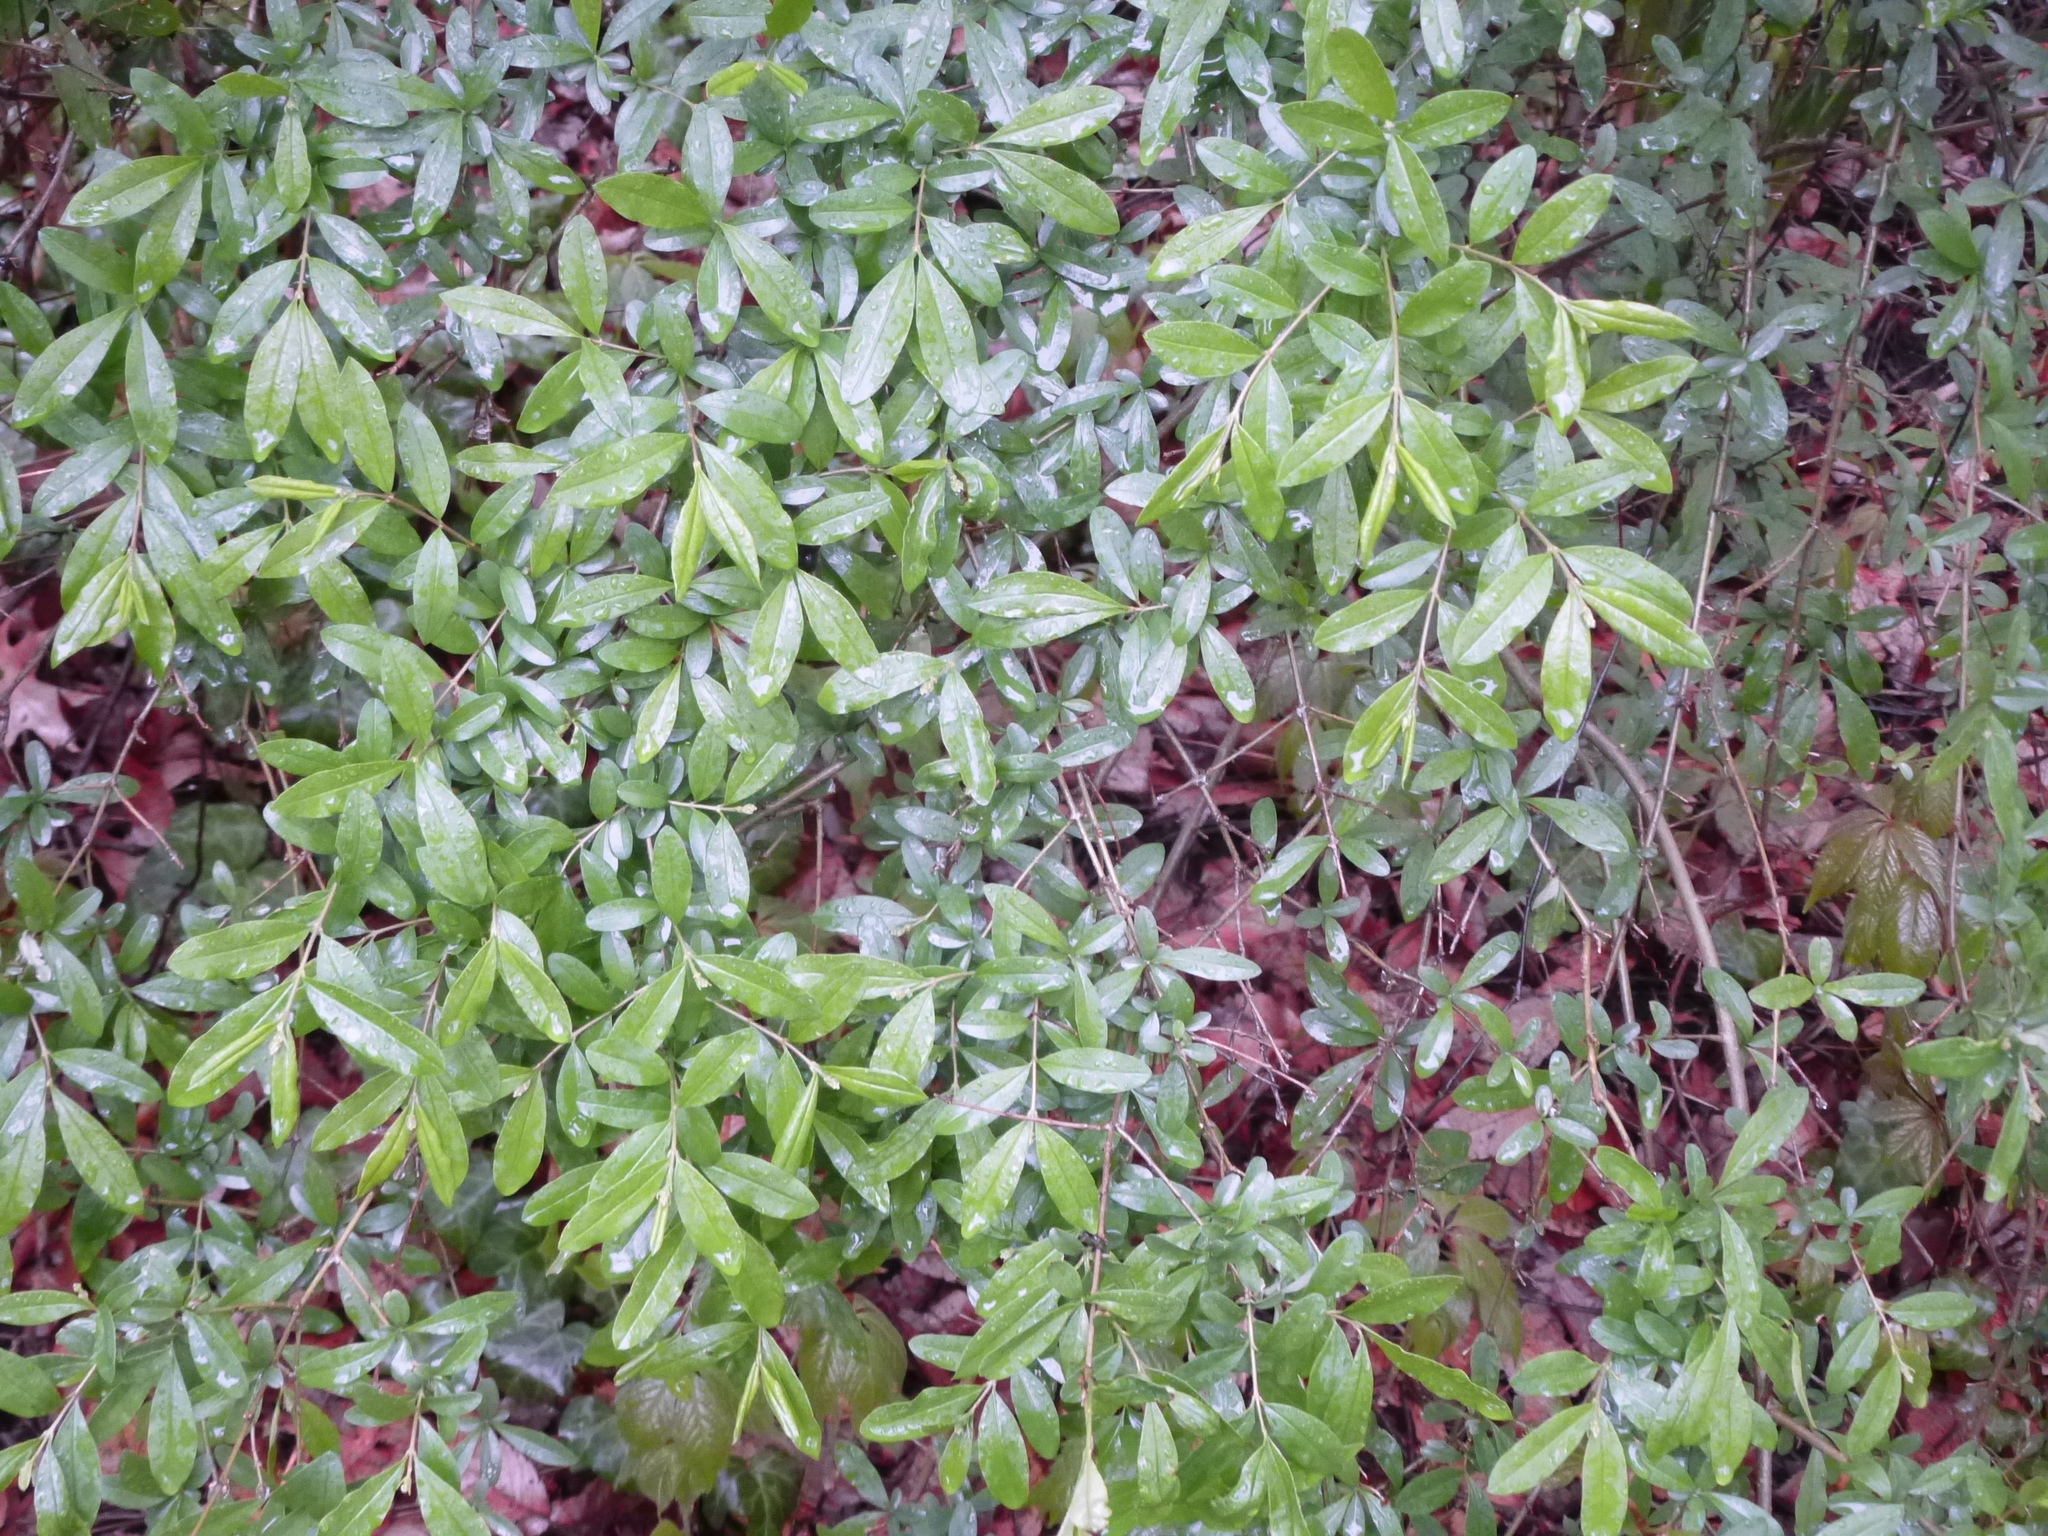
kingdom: Plantae
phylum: Tracheophyta
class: Magnoliopsida
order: Lamiales
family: Oleaceae
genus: Ligustrum
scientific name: Ligustrum obtusifolium
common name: Border privet
